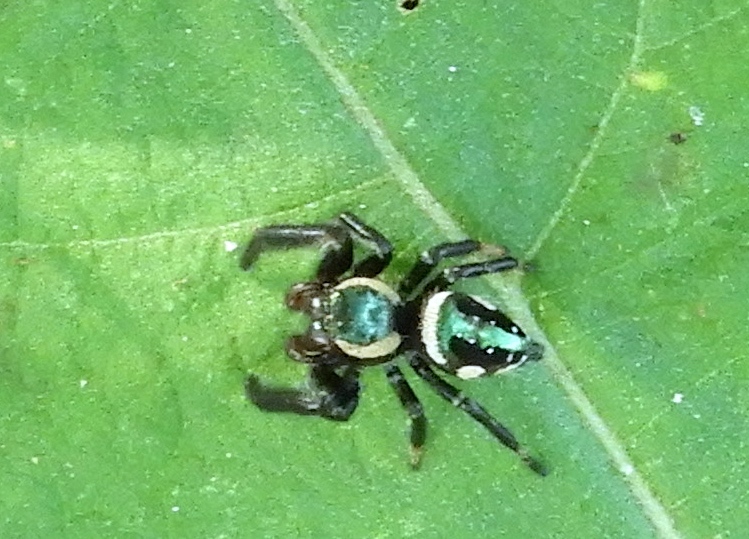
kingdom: Animalia
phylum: Arthropoda
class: Arachnida
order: Araneae
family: Salticidae
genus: Paraphidippus
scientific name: Paraphidippus aurantius
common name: Jumping spiders
